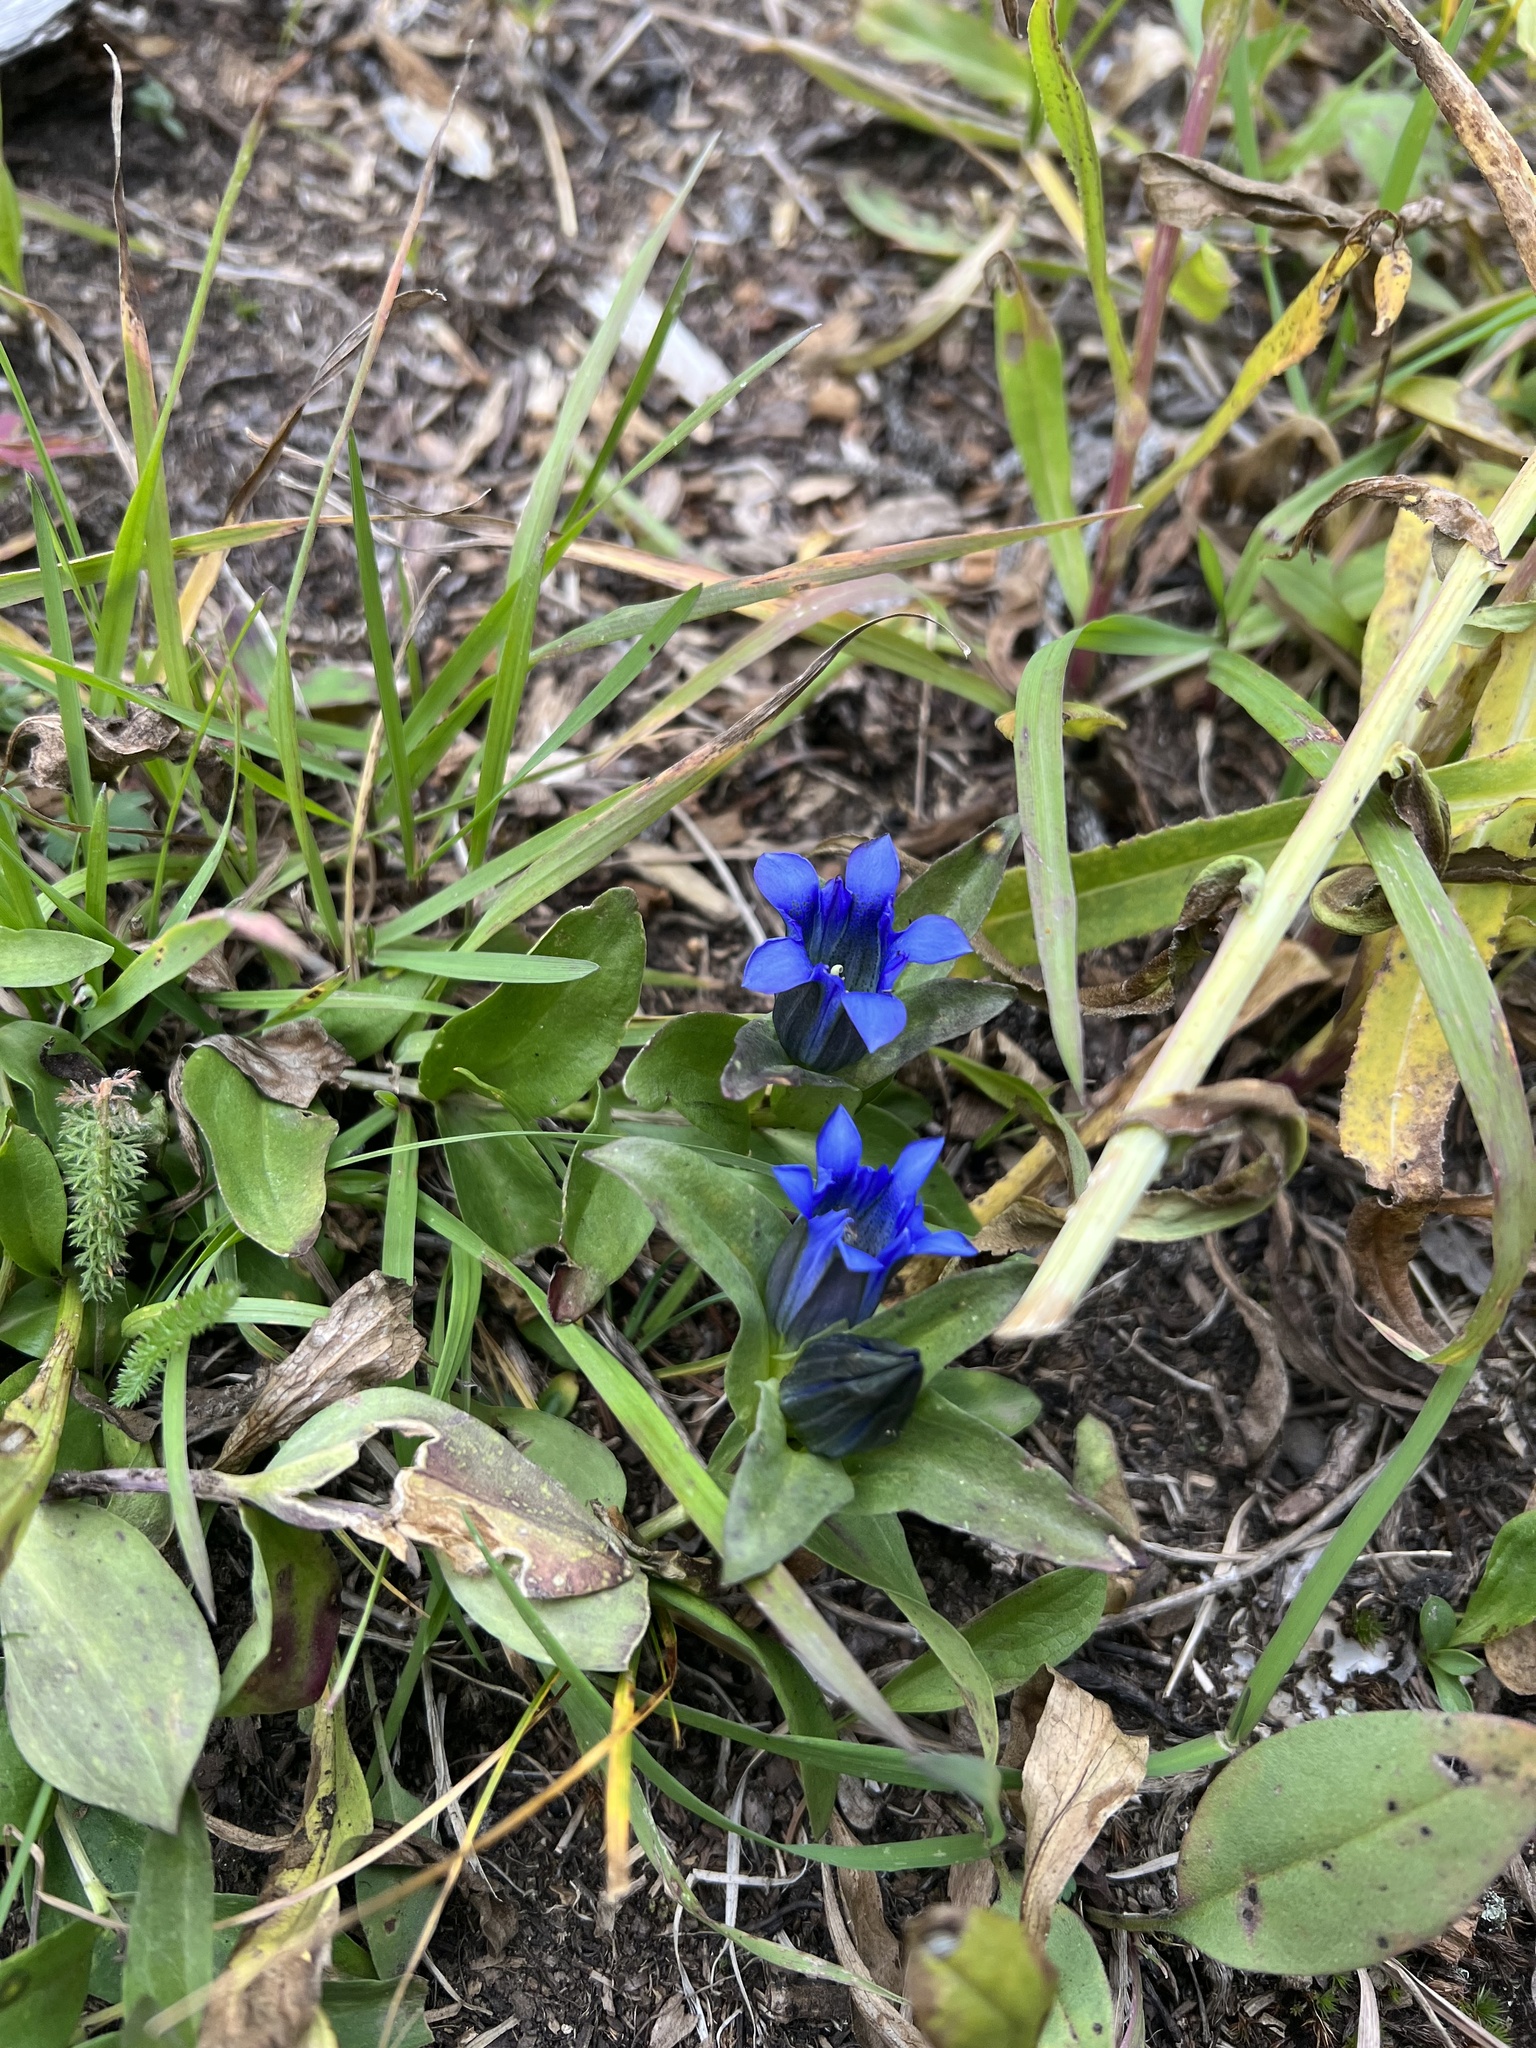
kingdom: Plantae
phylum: Tracheophyta
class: Magnoliopsida
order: Gentianales
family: Gentianaceae
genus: Gentiana
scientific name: Gentiana parryi
